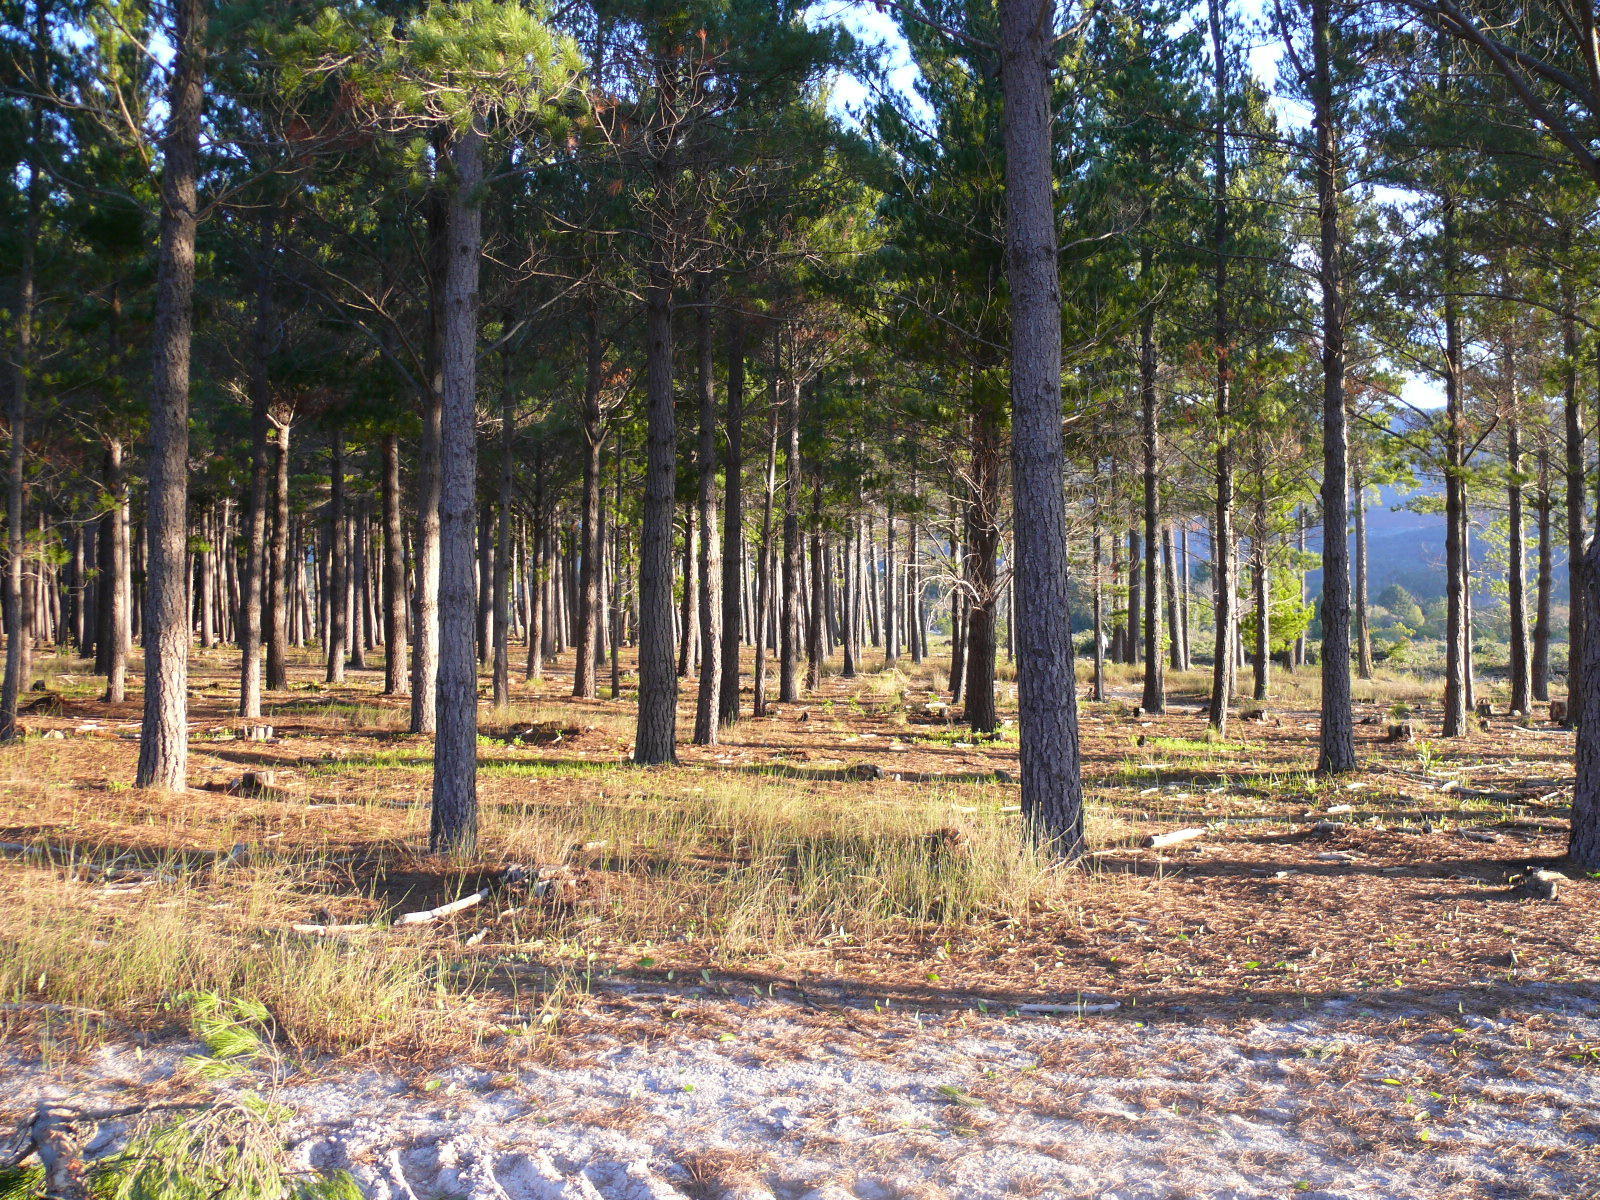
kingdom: Plantae
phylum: Tracheophyta
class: Liliopsida
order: Poales
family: Poaceae
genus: Ehrharta
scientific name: Ehrharta calycina
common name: Perennial veldtgrass
